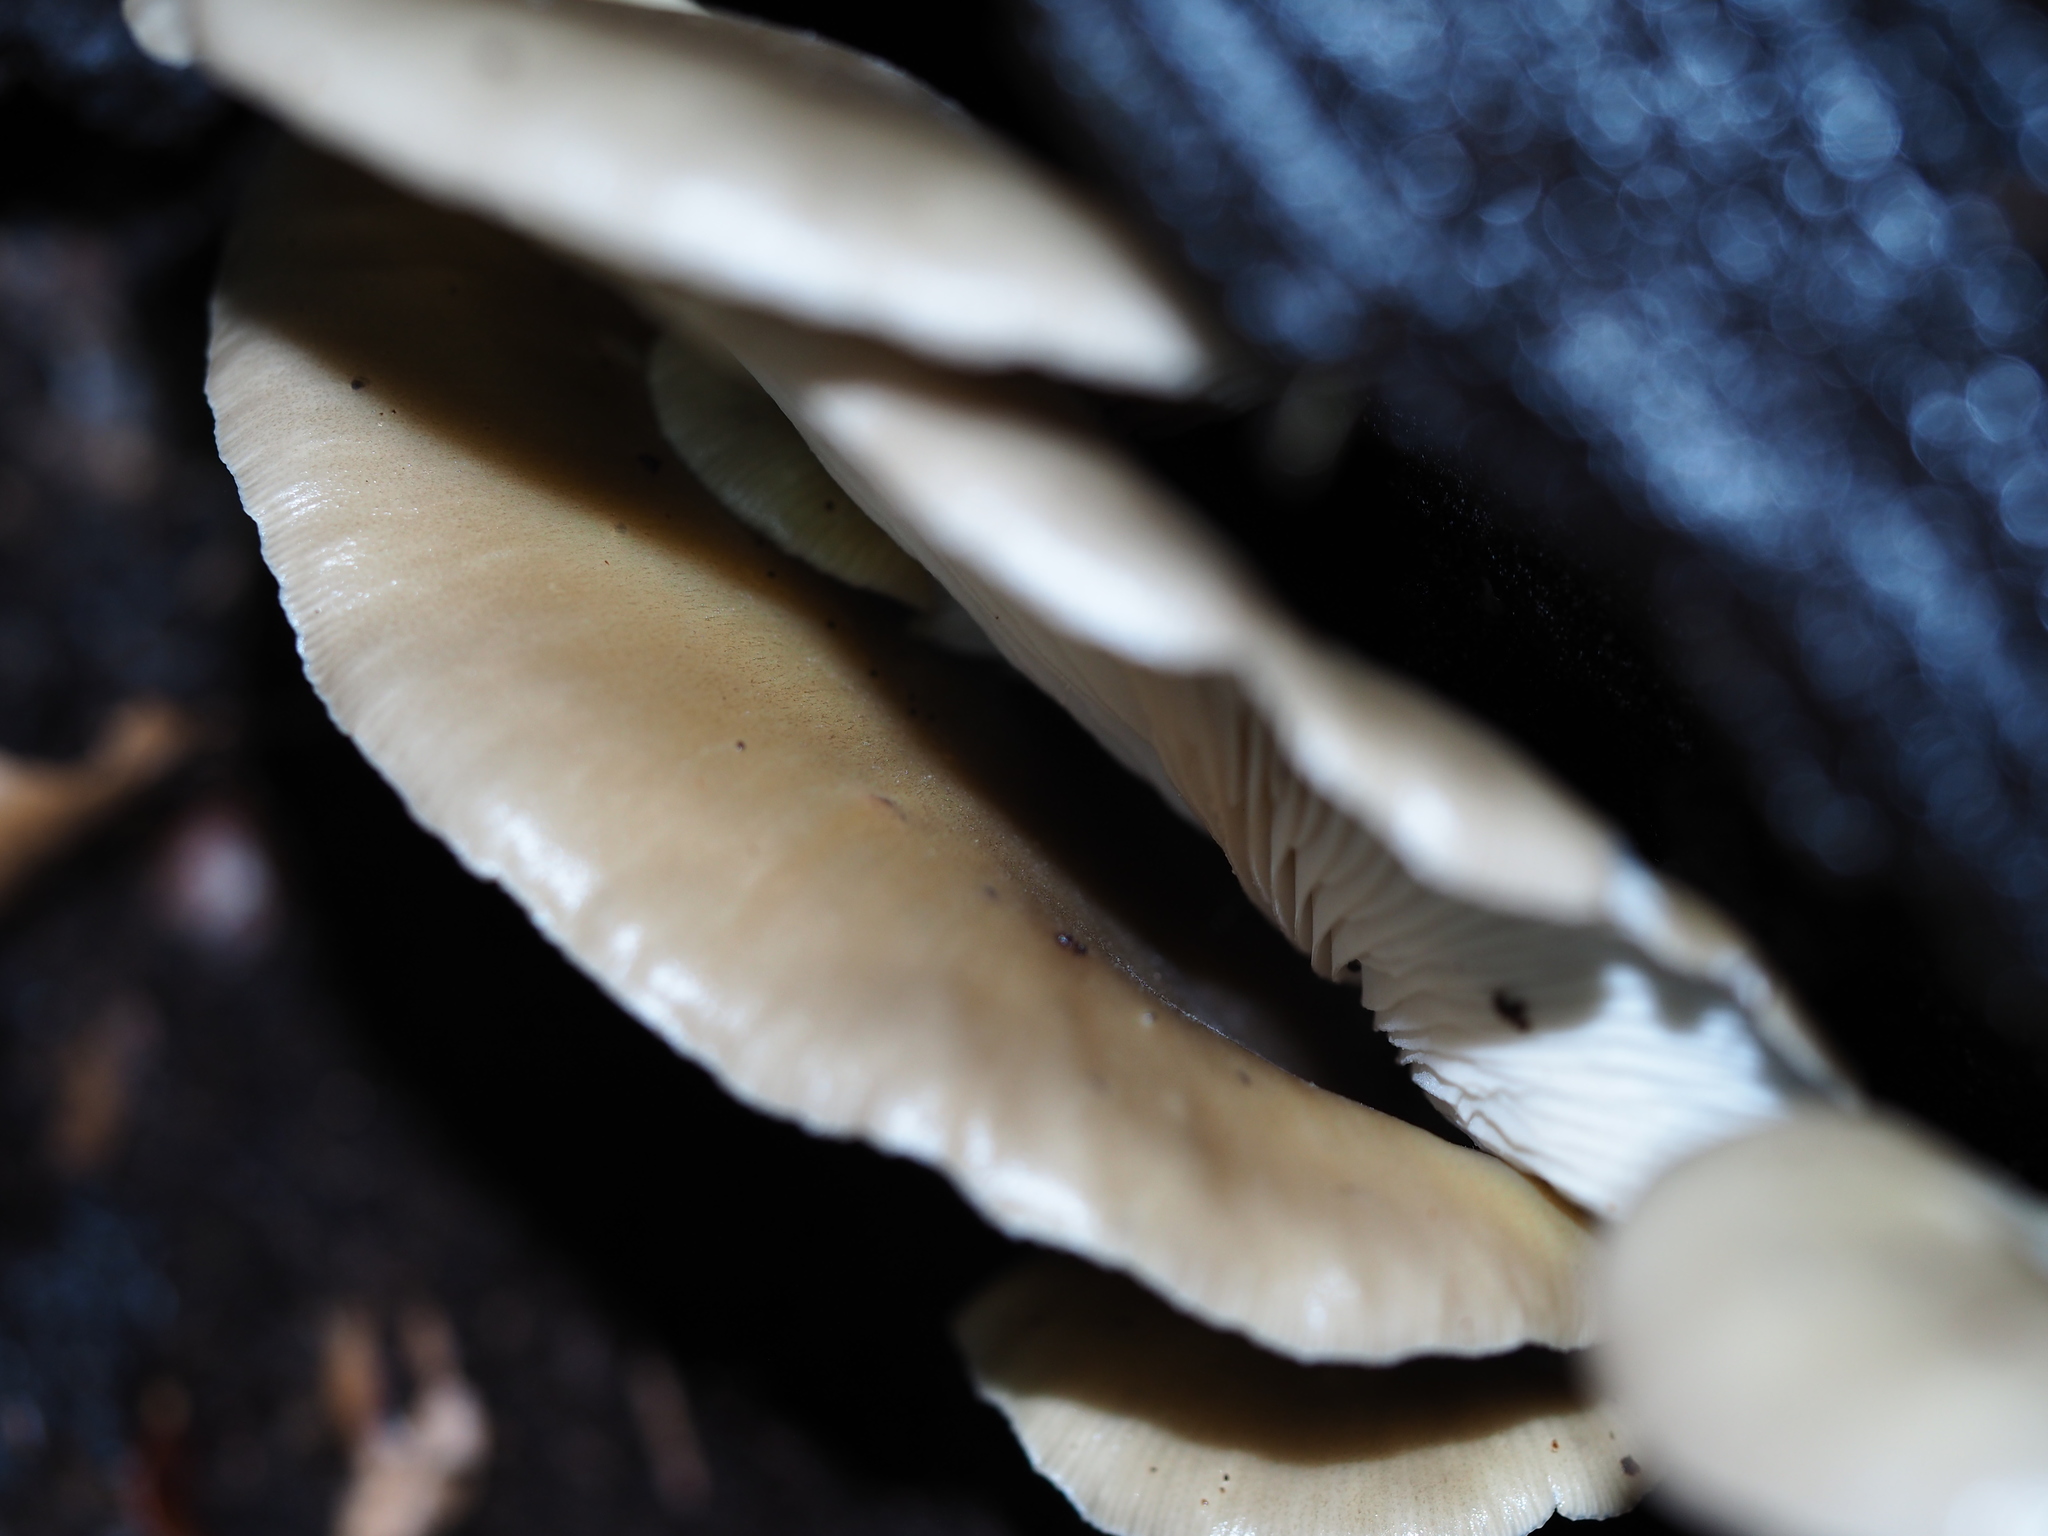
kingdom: Fungi
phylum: Basidiomycota
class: Agaricomycetes
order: Agaricales
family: Pleurotaceae
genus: Pleurotus
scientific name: Pleurotus purpureo-olivaceus
